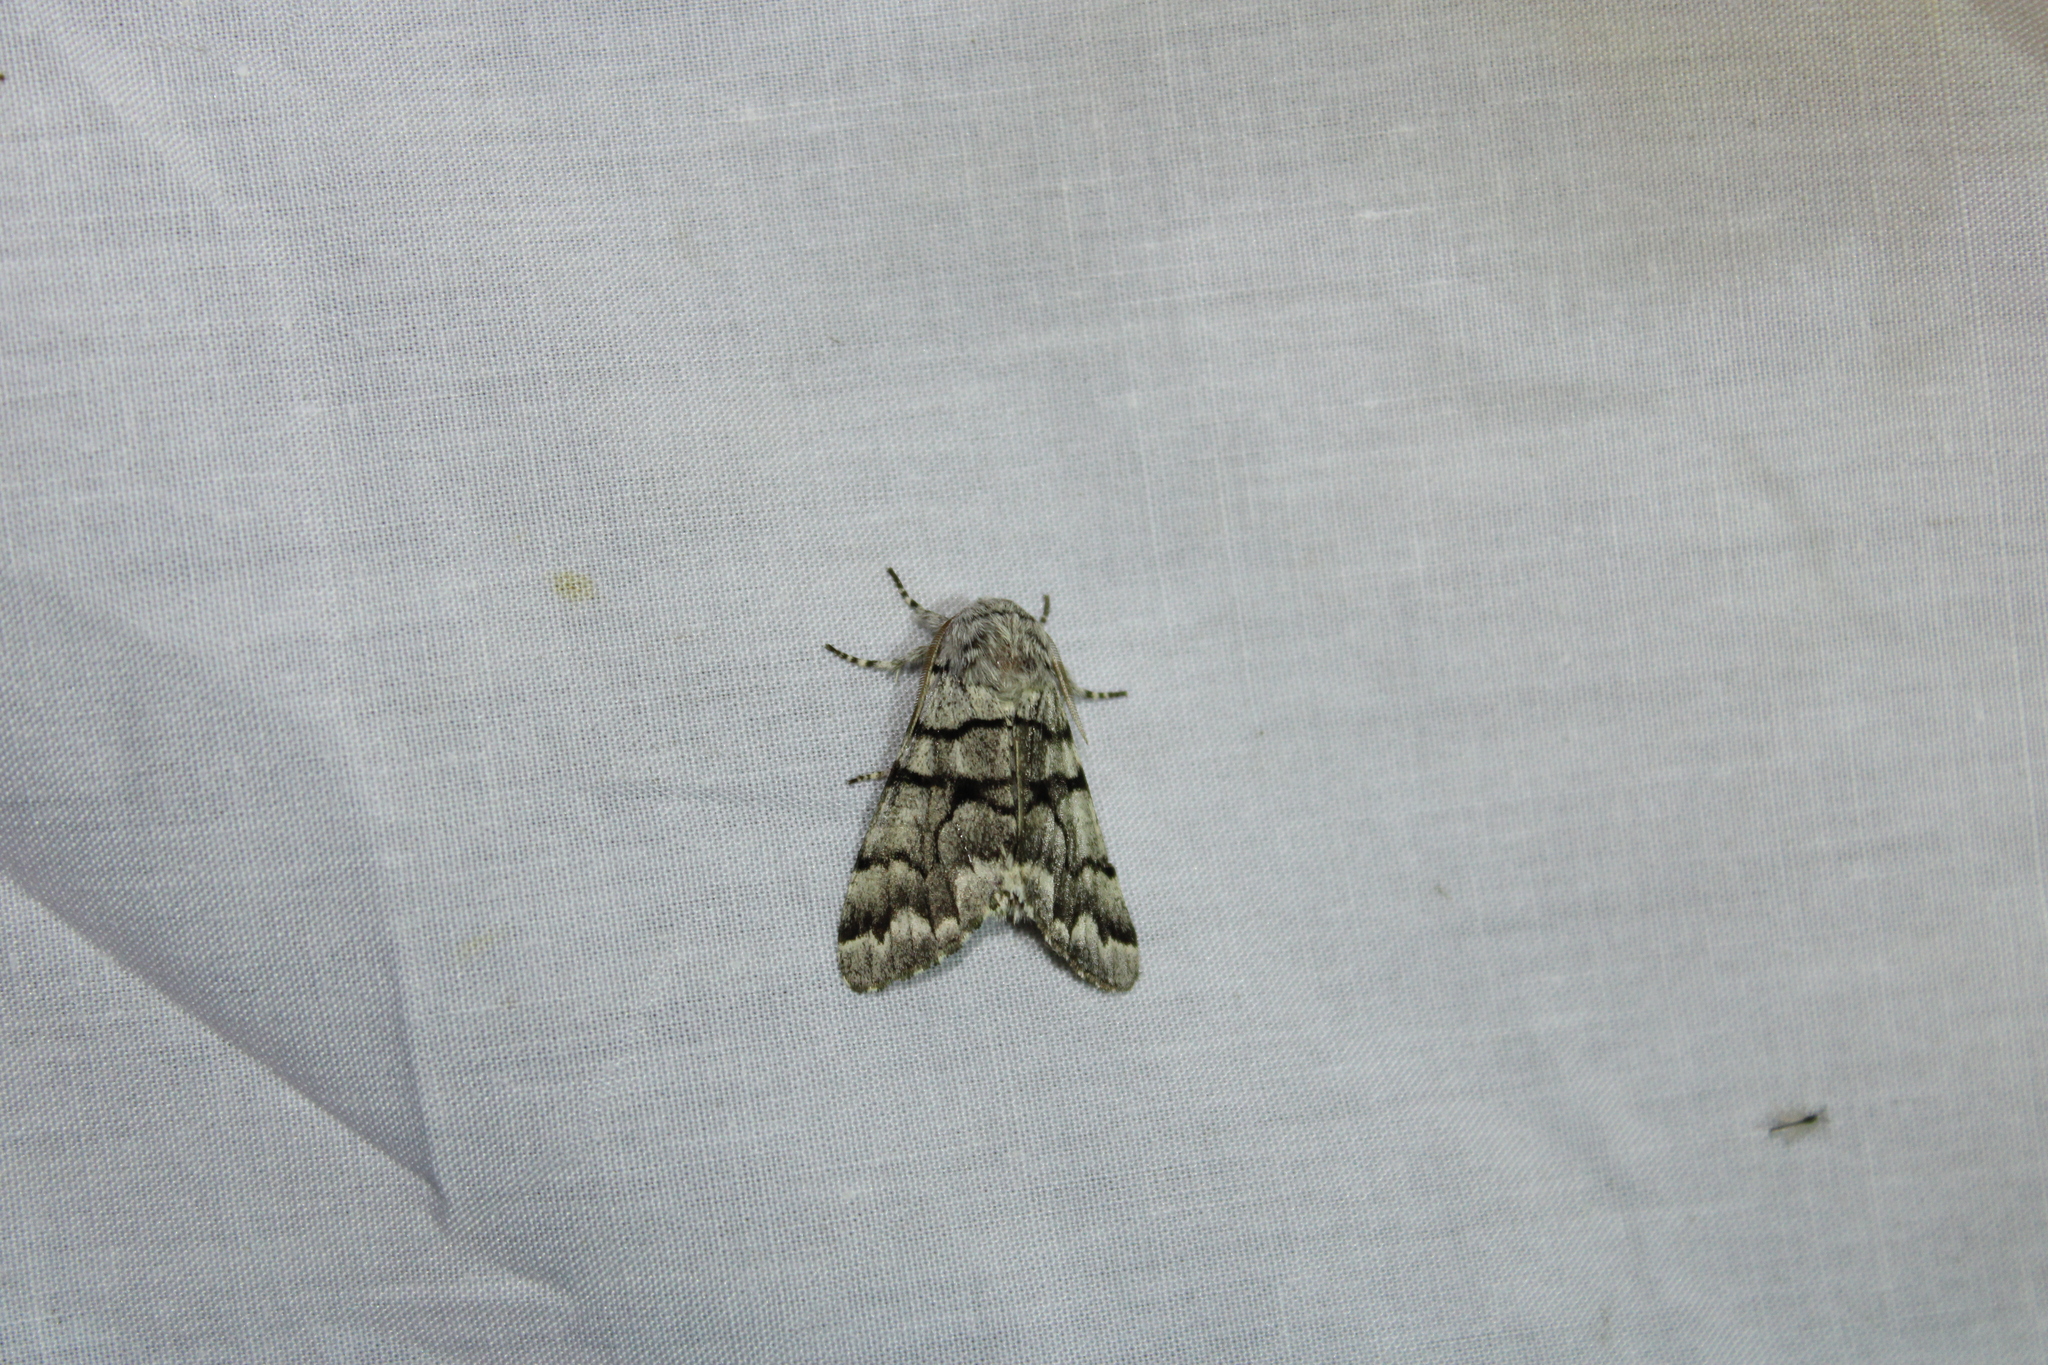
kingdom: Animalia
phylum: Arthropoda
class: Insecta
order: Lepidoptera
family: Noctuidae
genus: Panthea
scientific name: Panthea furcilla
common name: Eastern panthea moth
